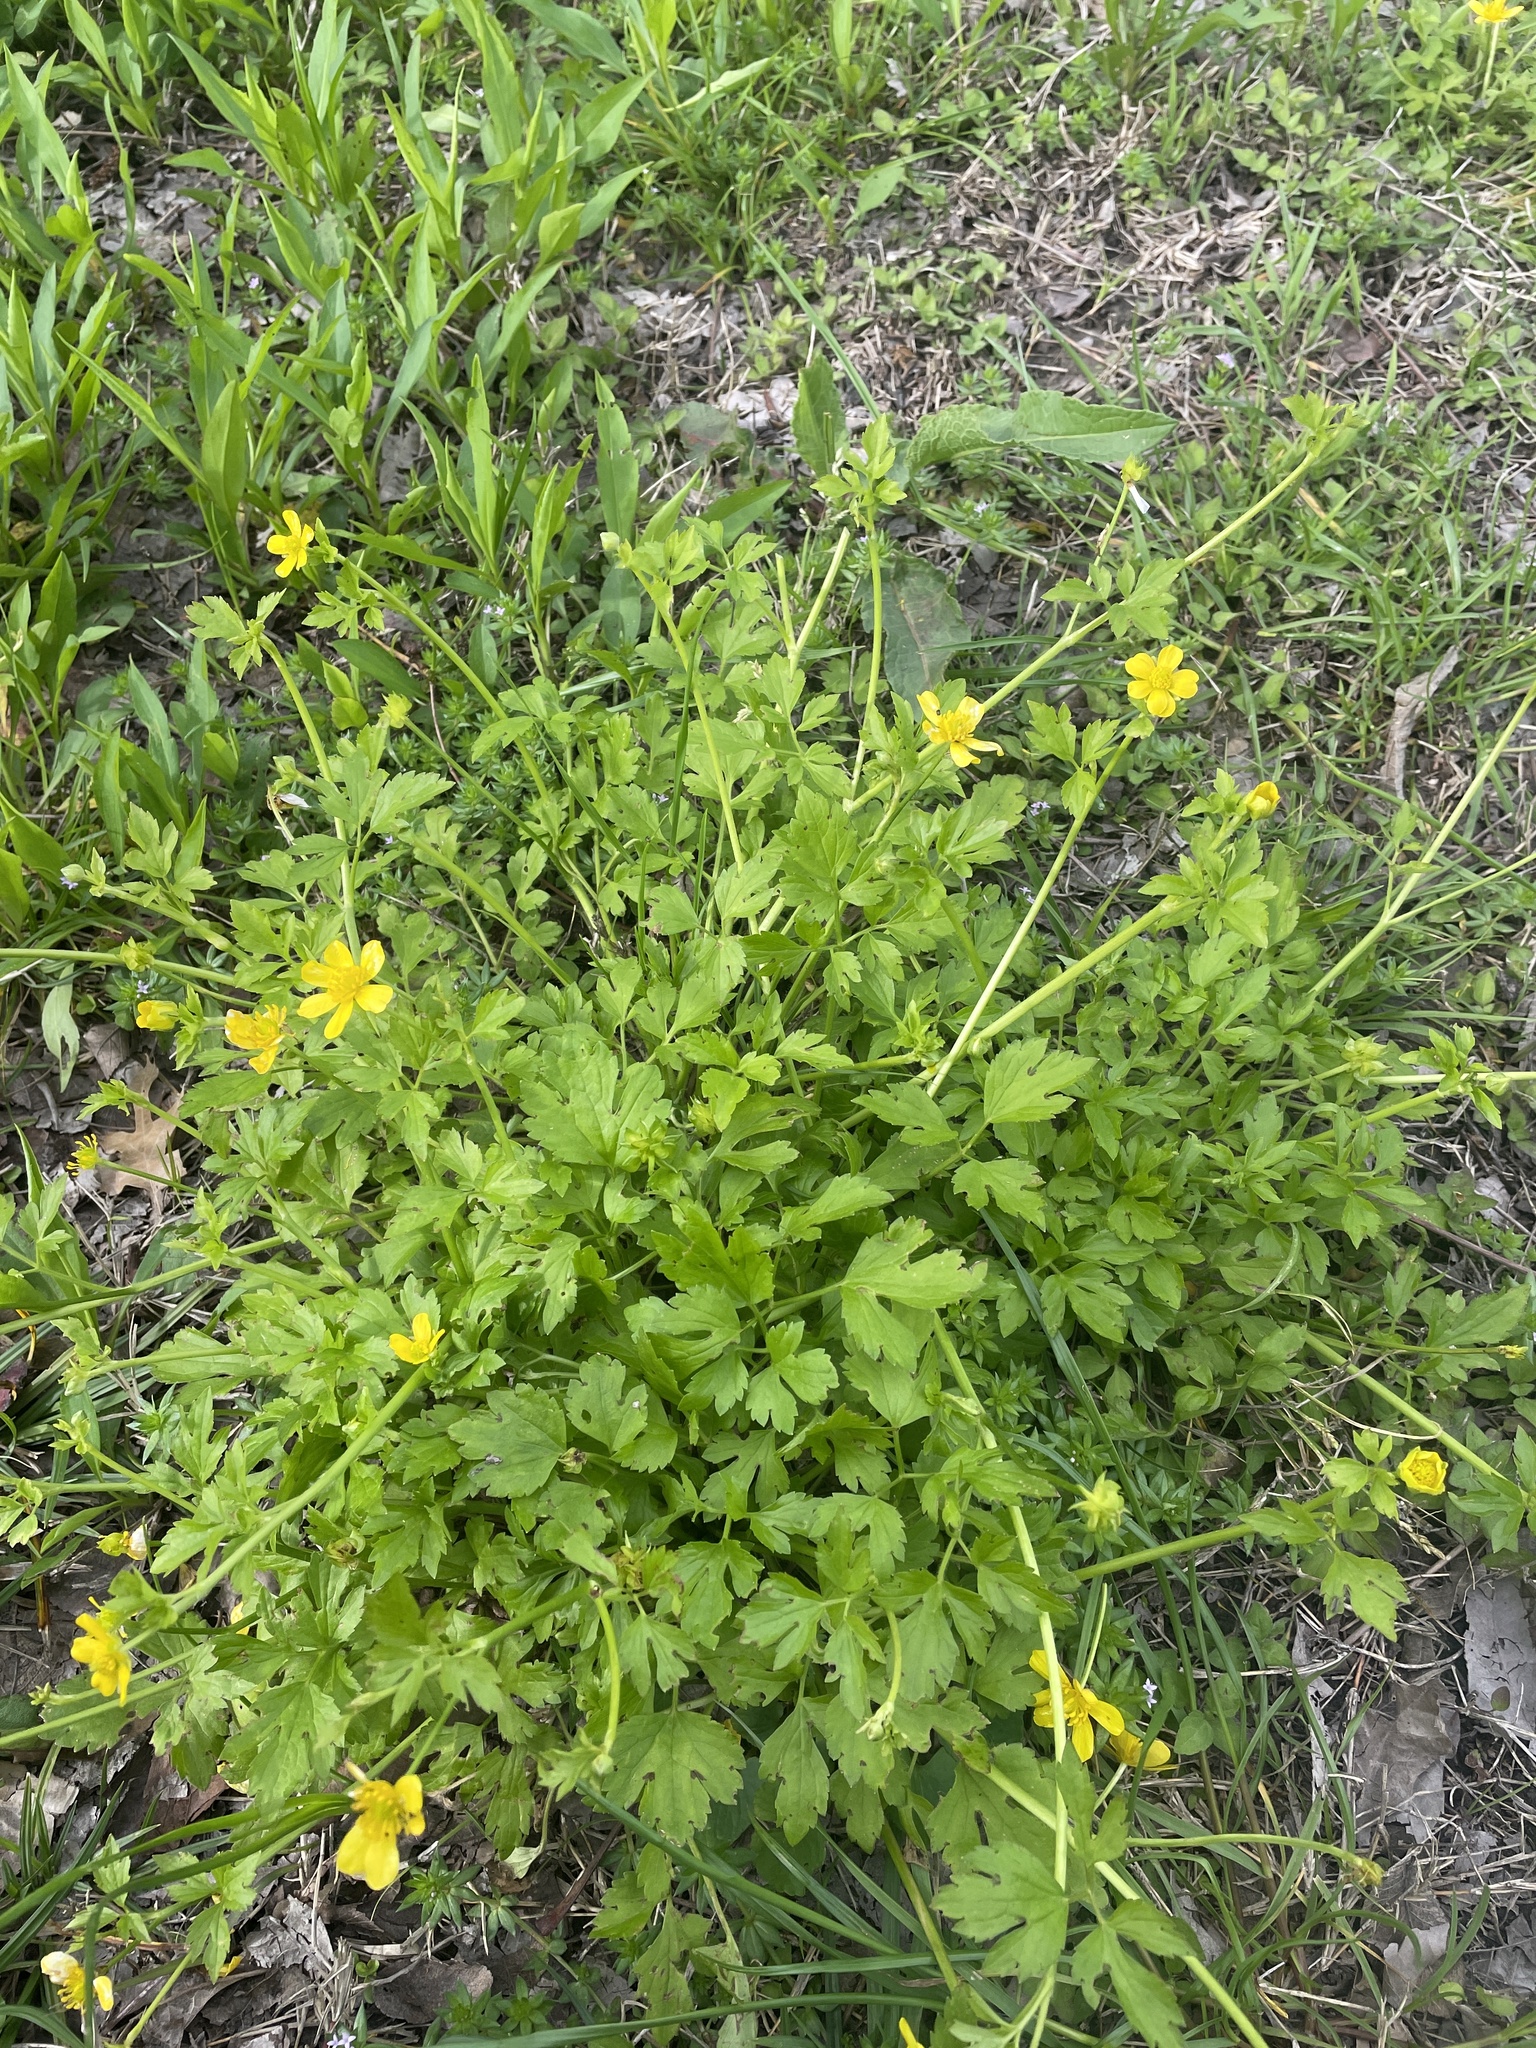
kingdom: Plantae
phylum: Tracheophyta
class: Magnoliopsida
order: Ranunculales
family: Ranunculaceae
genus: Ranunculus
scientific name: Ranunculus hispidus
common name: Bristly buttercup
